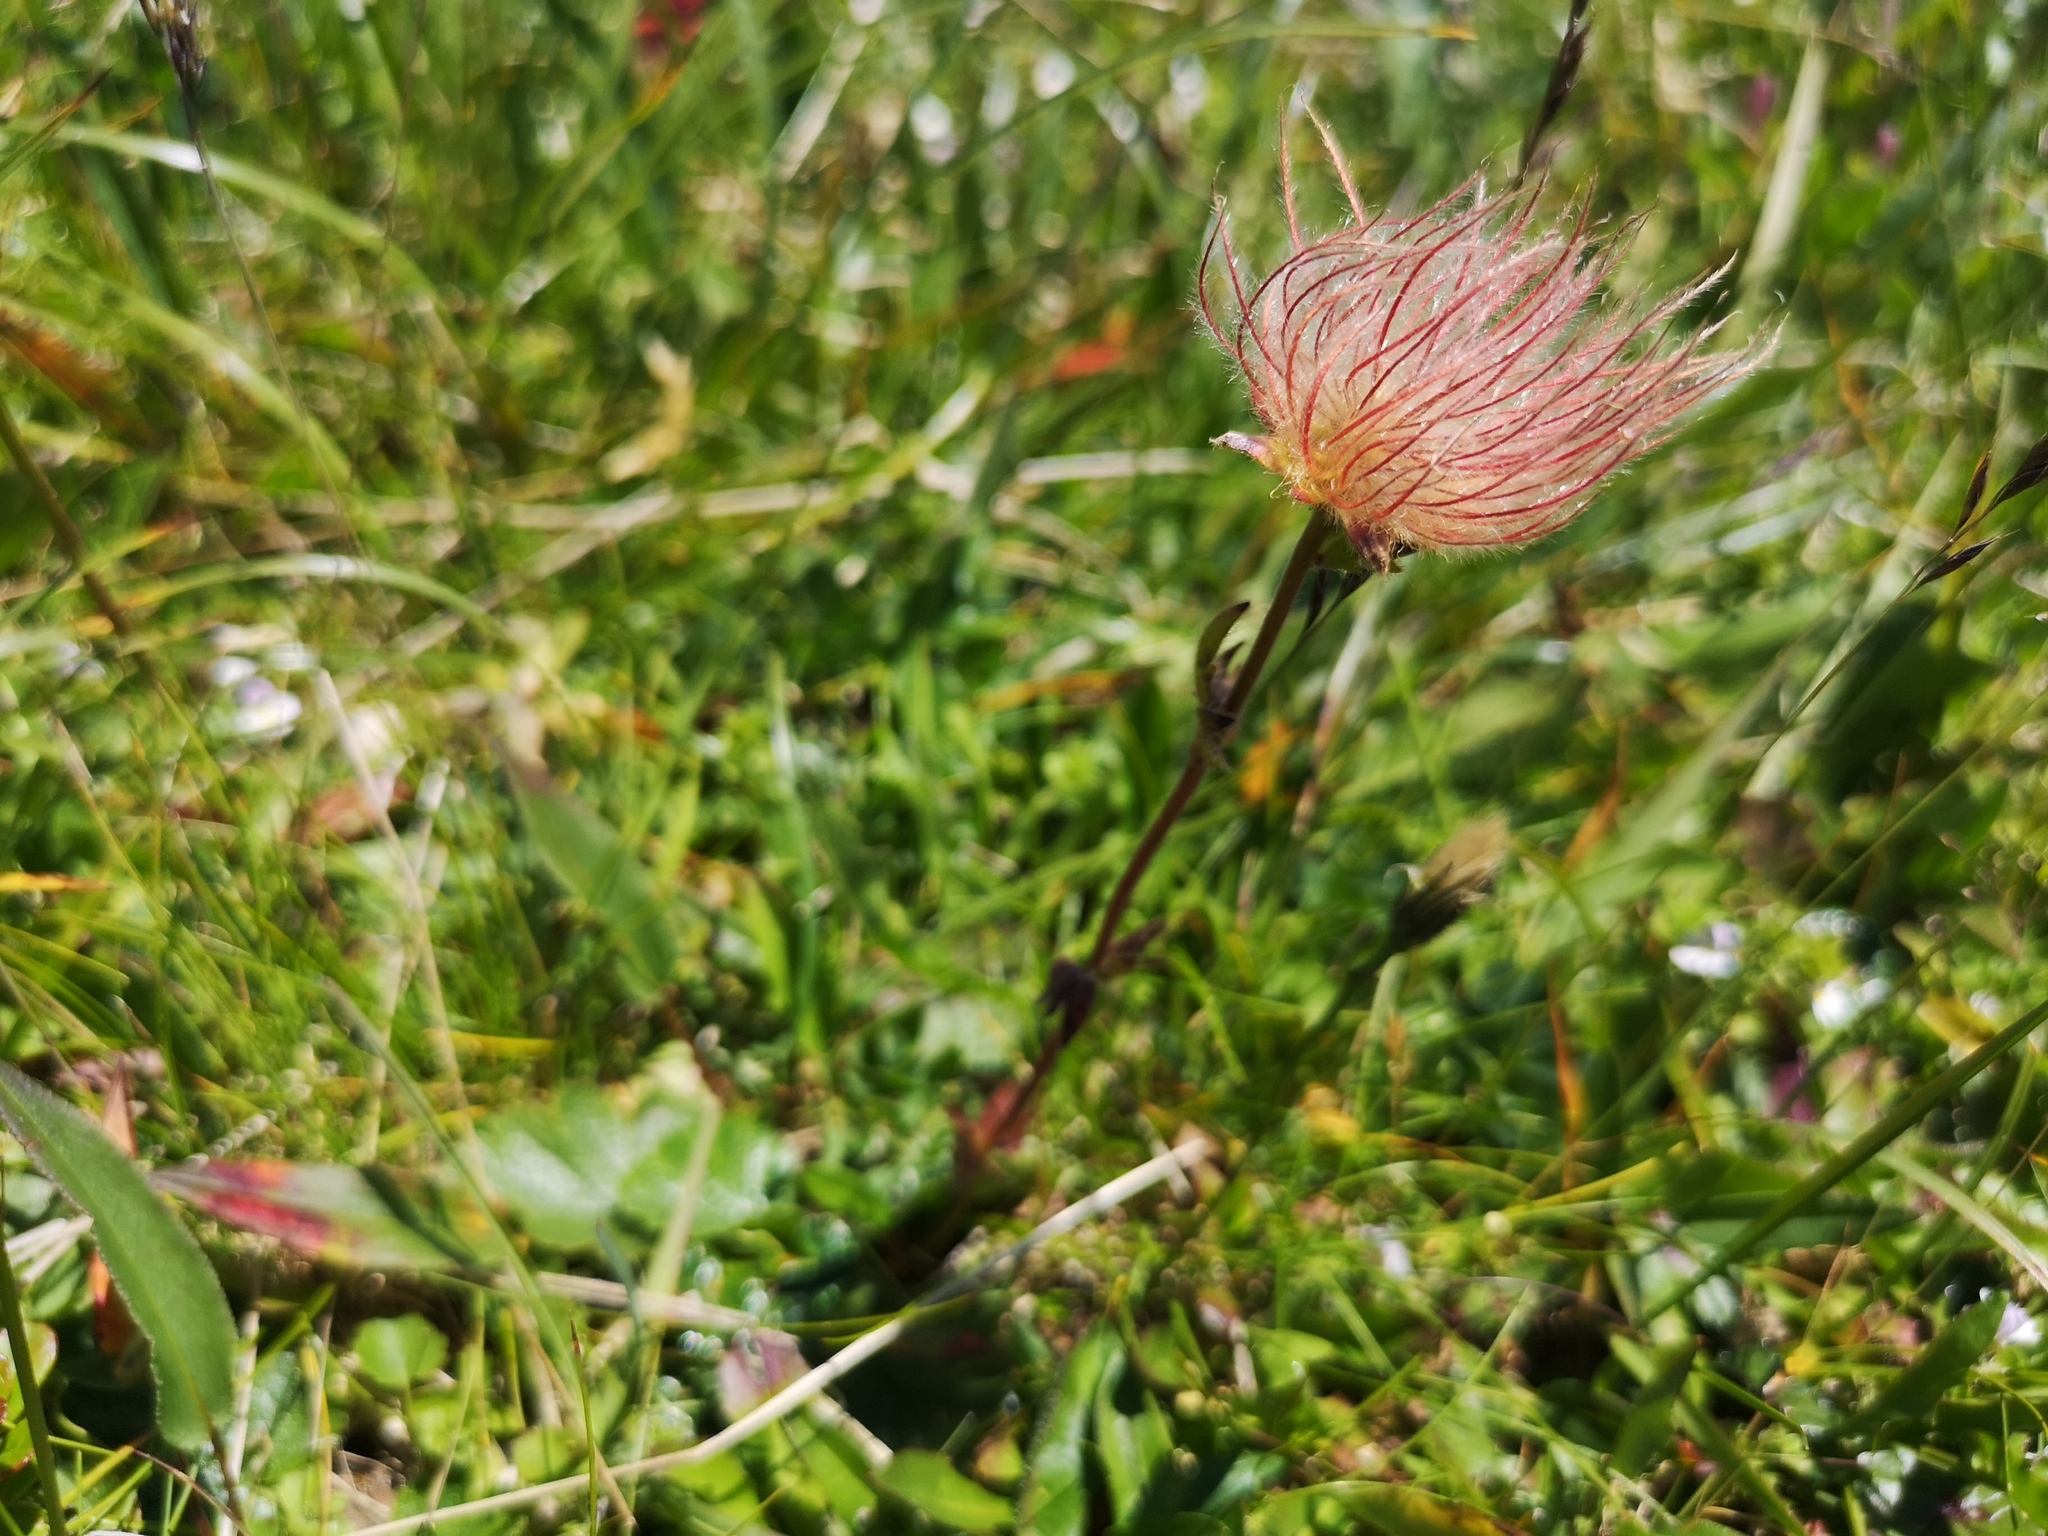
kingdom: Plantae
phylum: Tracheophyta
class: Magnoliopsida
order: Rosales
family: Rosaceae
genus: Geum
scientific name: Geum montanum
